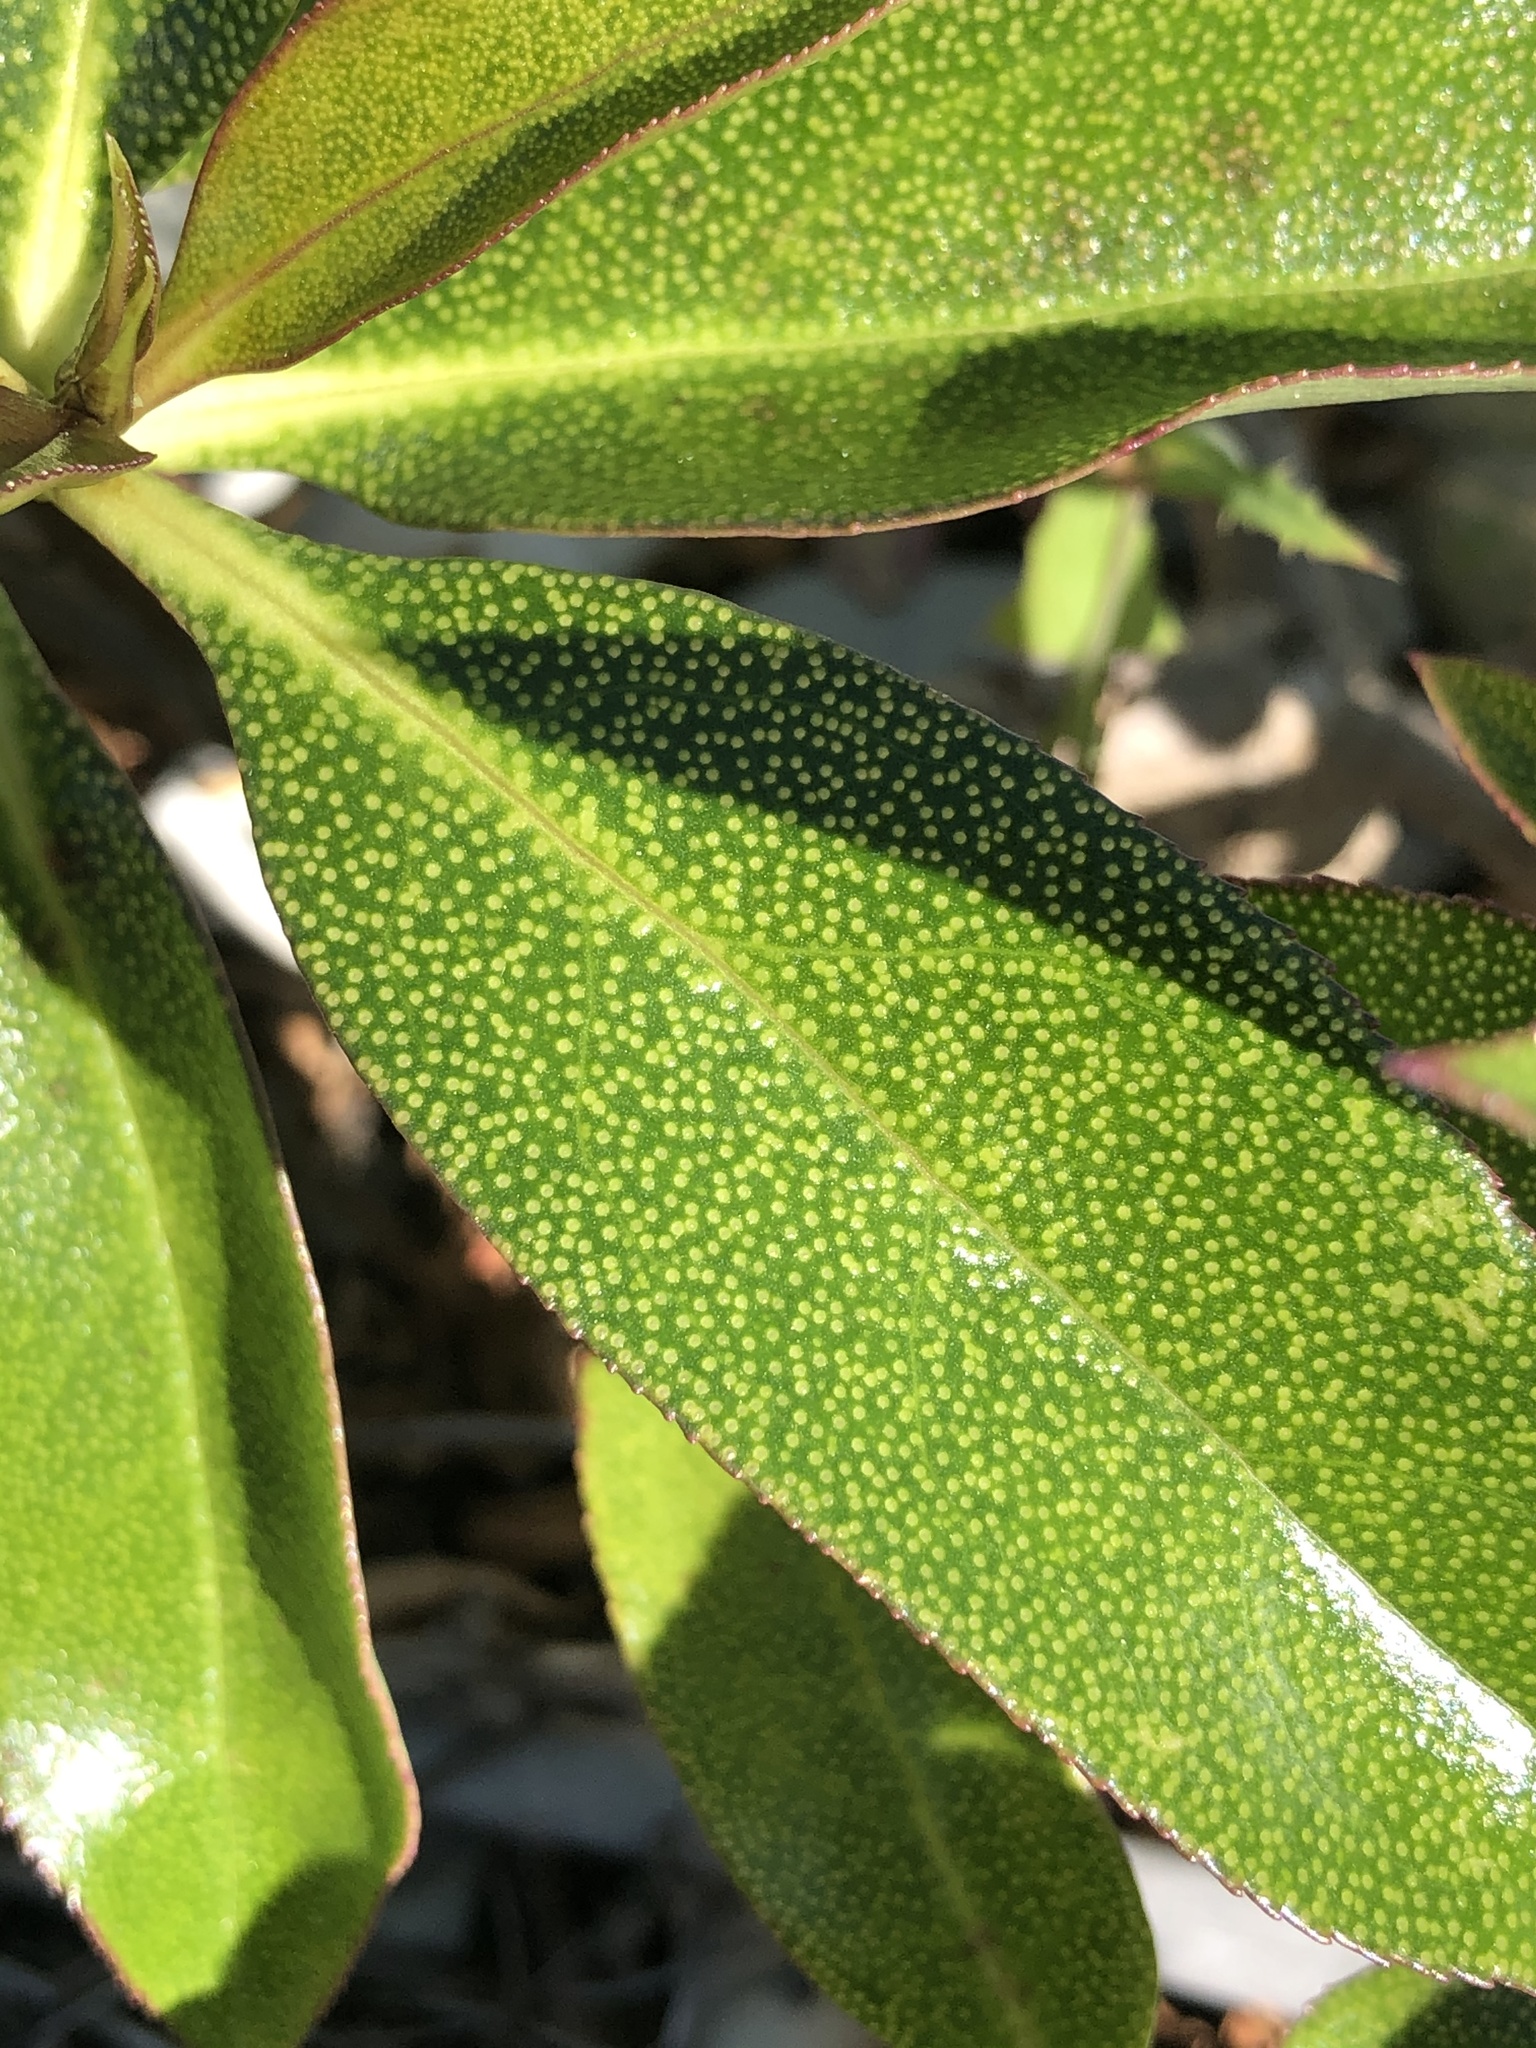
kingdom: Plantae
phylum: Tracheophyta
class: Magnoliopsida
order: Lamiales
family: Scrophulariaceae
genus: Myoporum
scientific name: Myoporum laetum
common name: Ngaio tree
